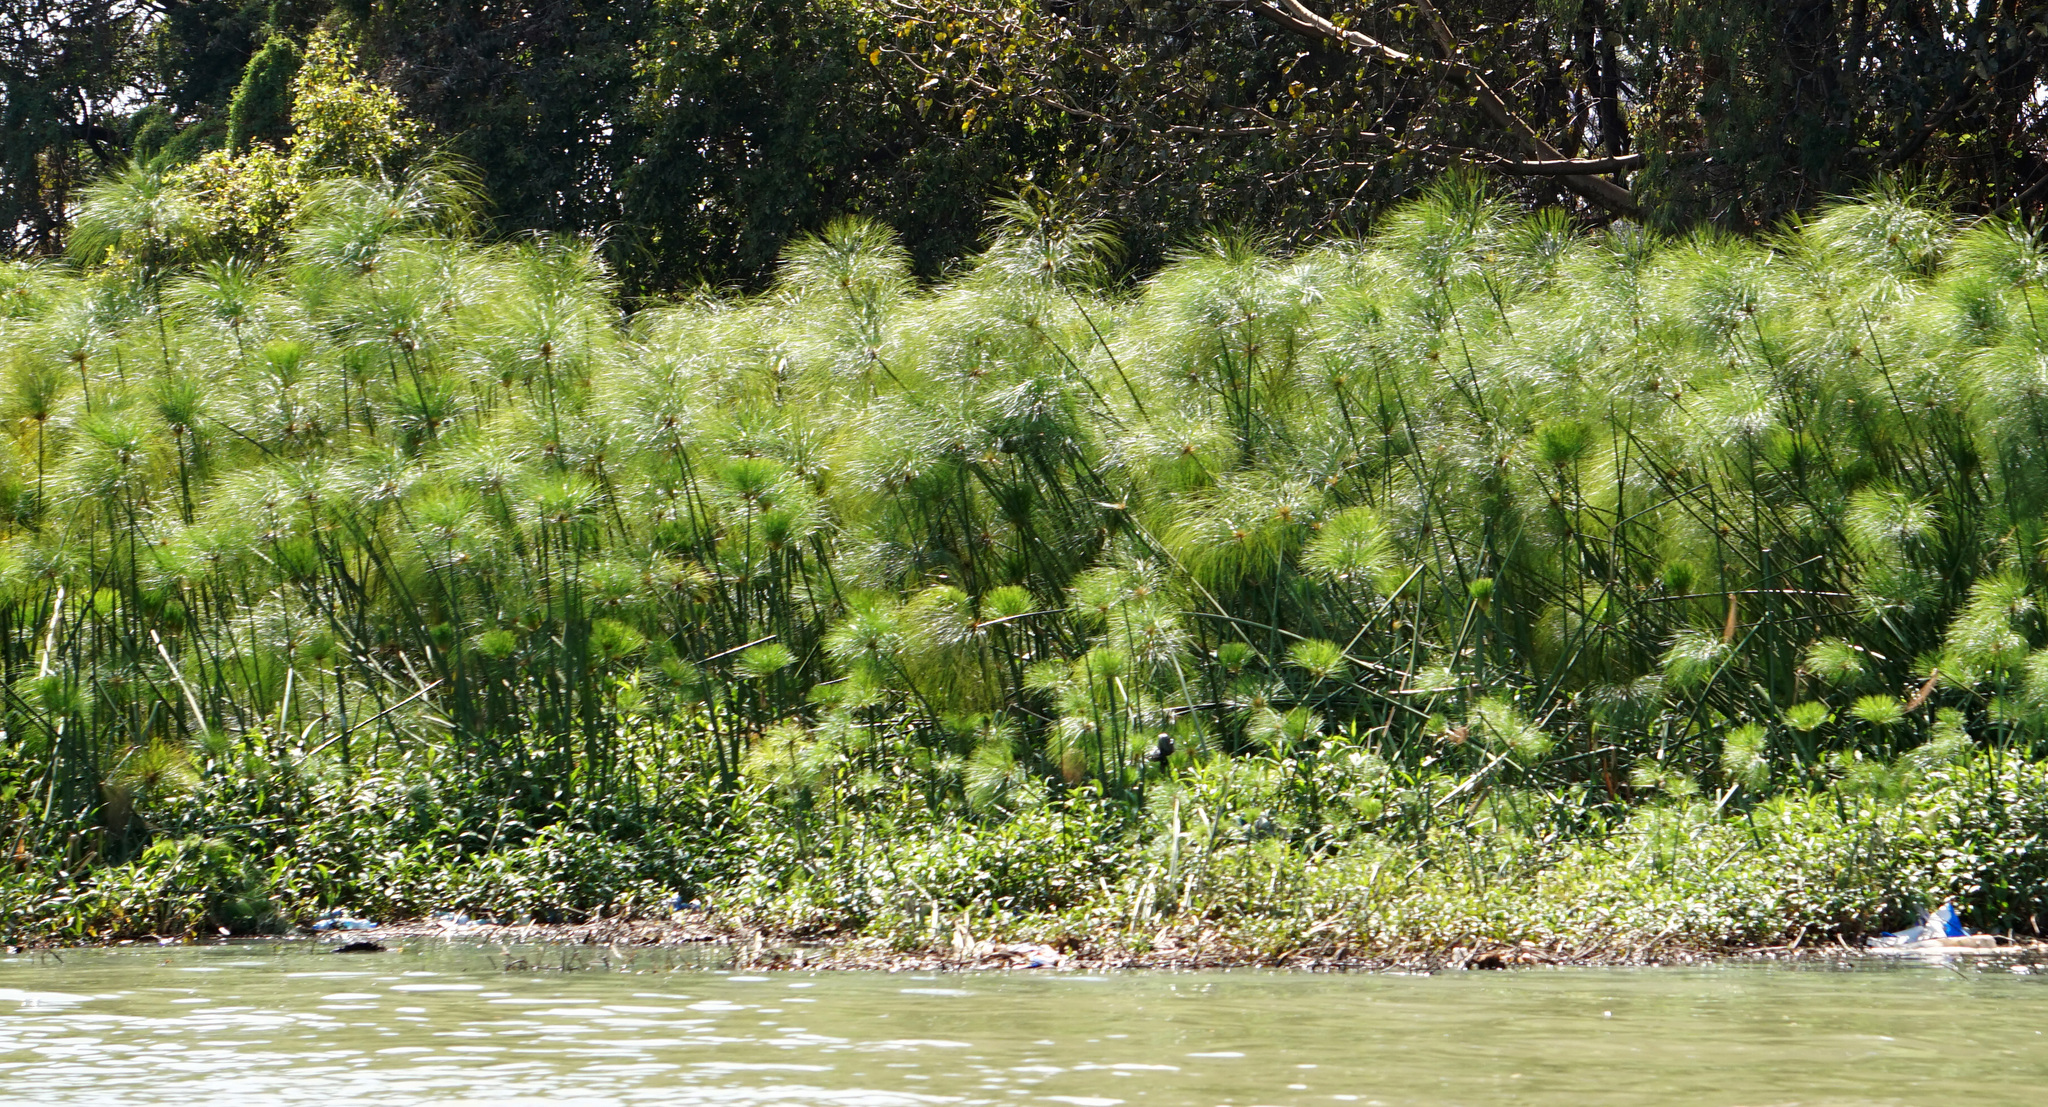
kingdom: Plantae
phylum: Tracheophyta
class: Liliopsida
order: Poales
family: Cyperaceae
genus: Cyperus
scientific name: Cyperus papyrus
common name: Papyrus
